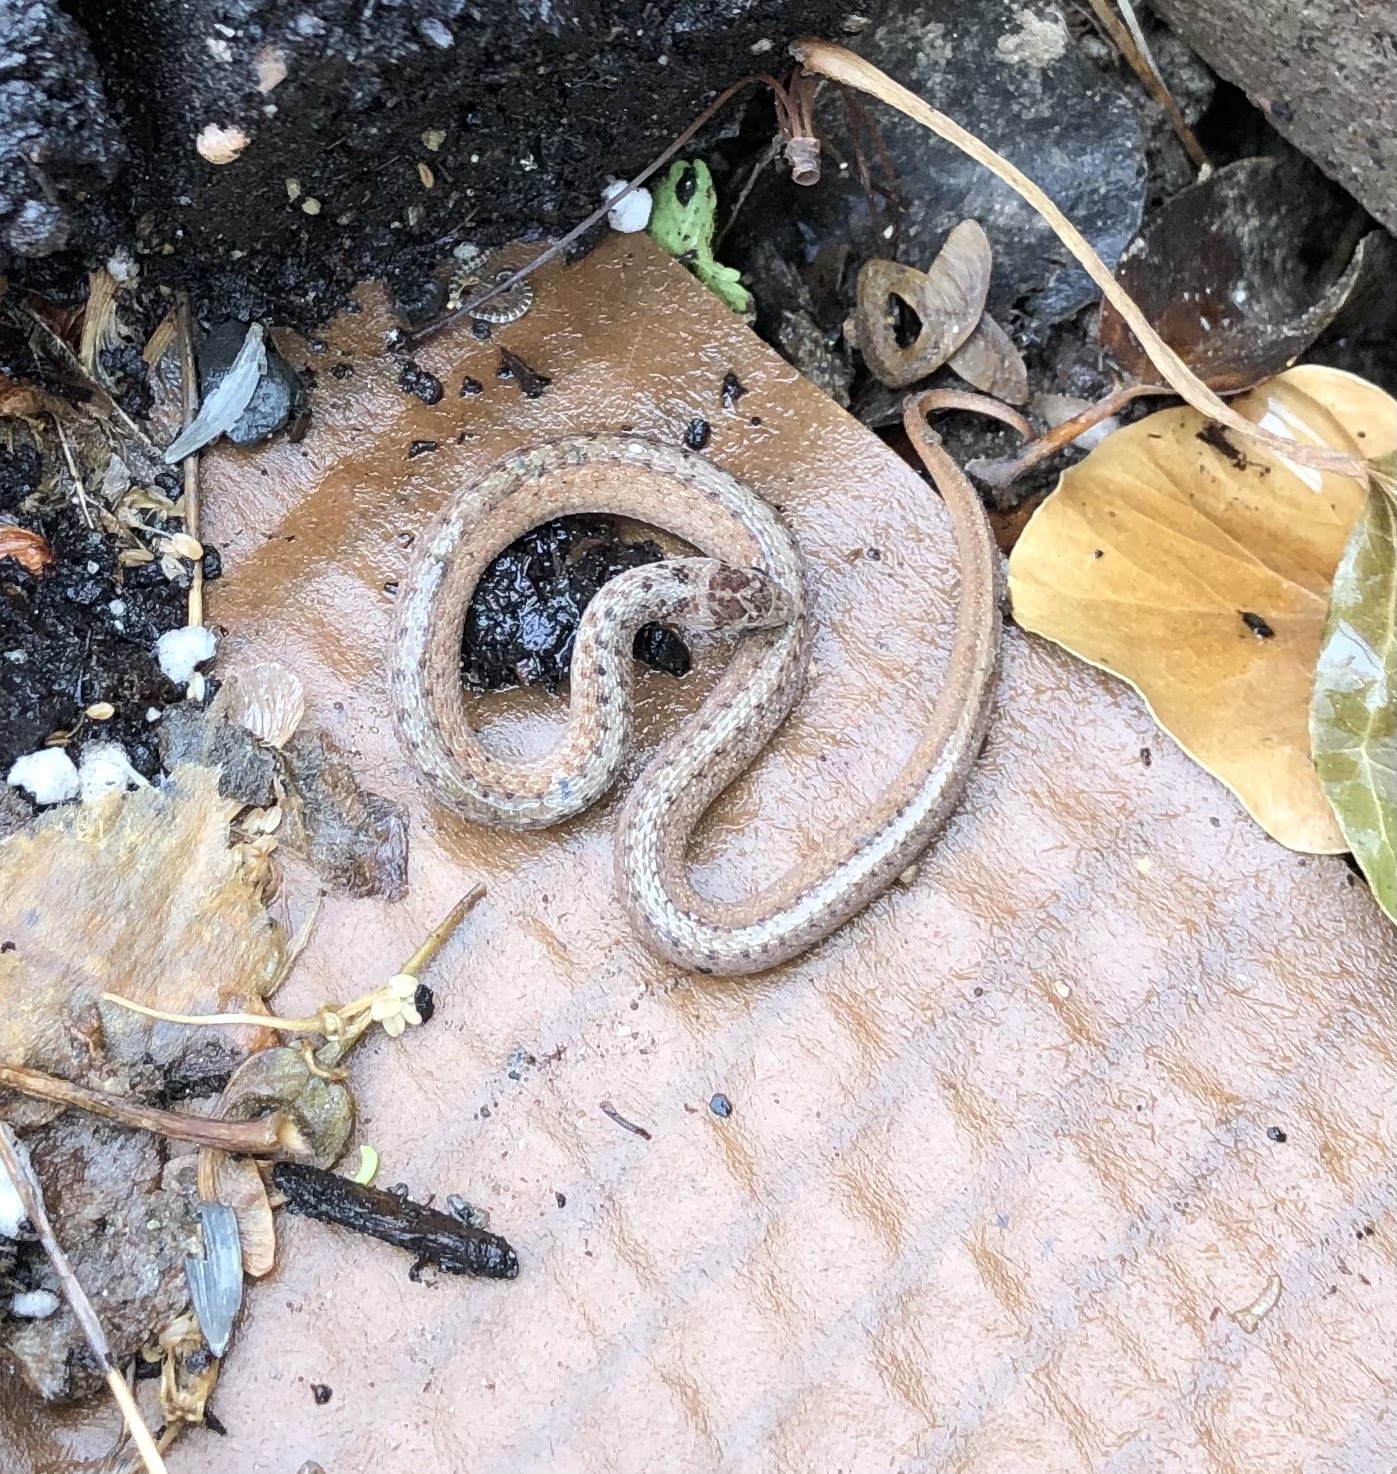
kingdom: Animalia
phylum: Chordata
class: Squamata
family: Colubridae
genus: Storeria
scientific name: Storeria dekayi
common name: (dekay’s) brown snake
